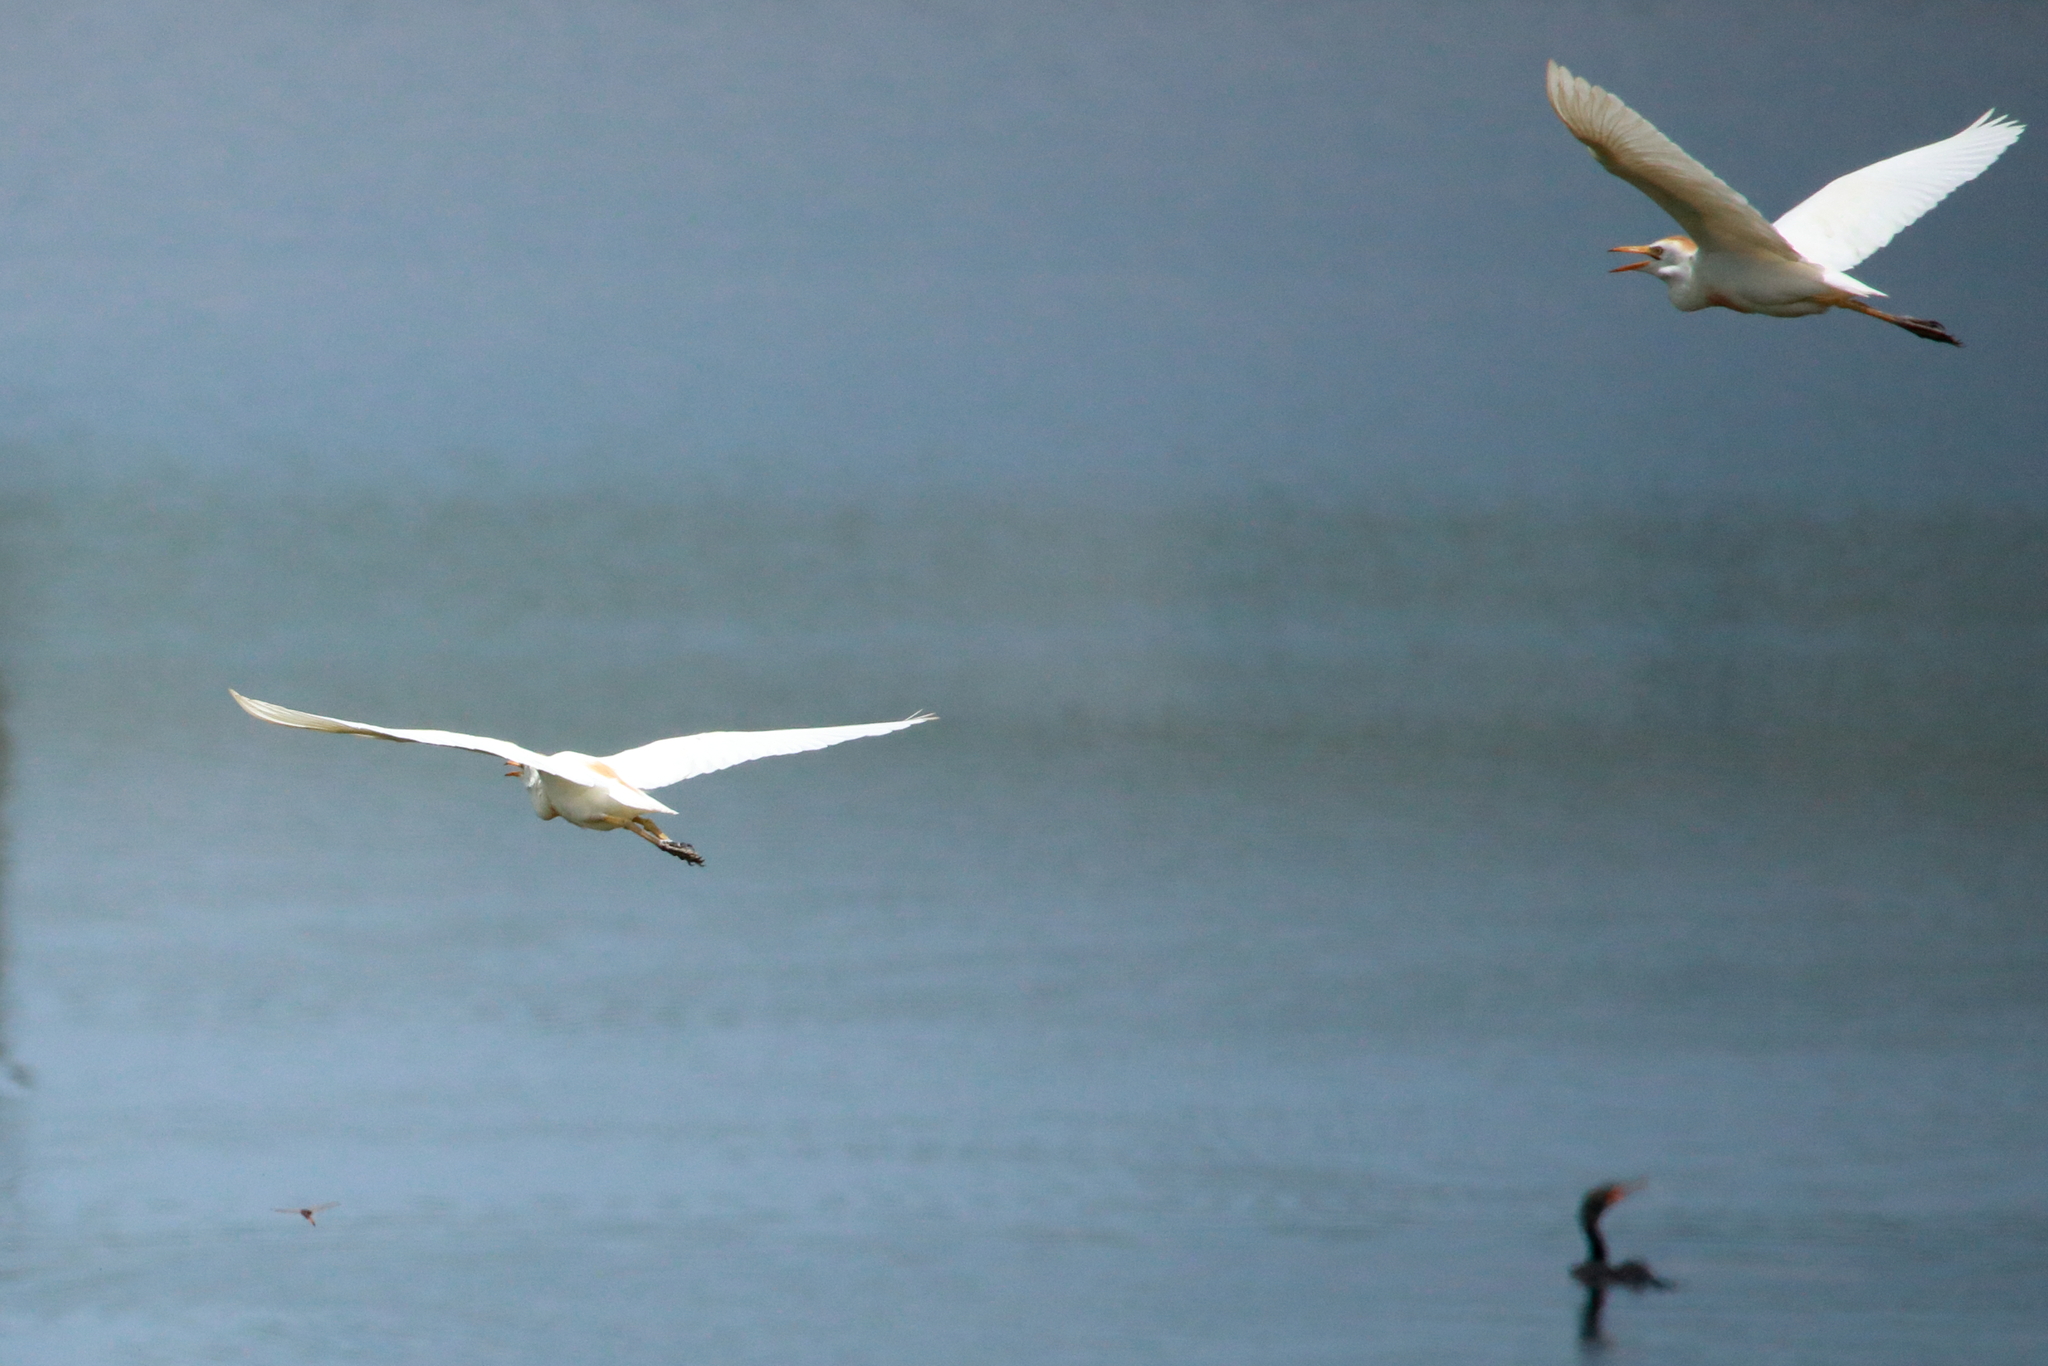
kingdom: Animalia
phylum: Chordata
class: Aves
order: Pelecaniformes
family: Ardeidae
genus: Bubulcus
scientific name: Bubulcus ibis
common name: Cattle egret
